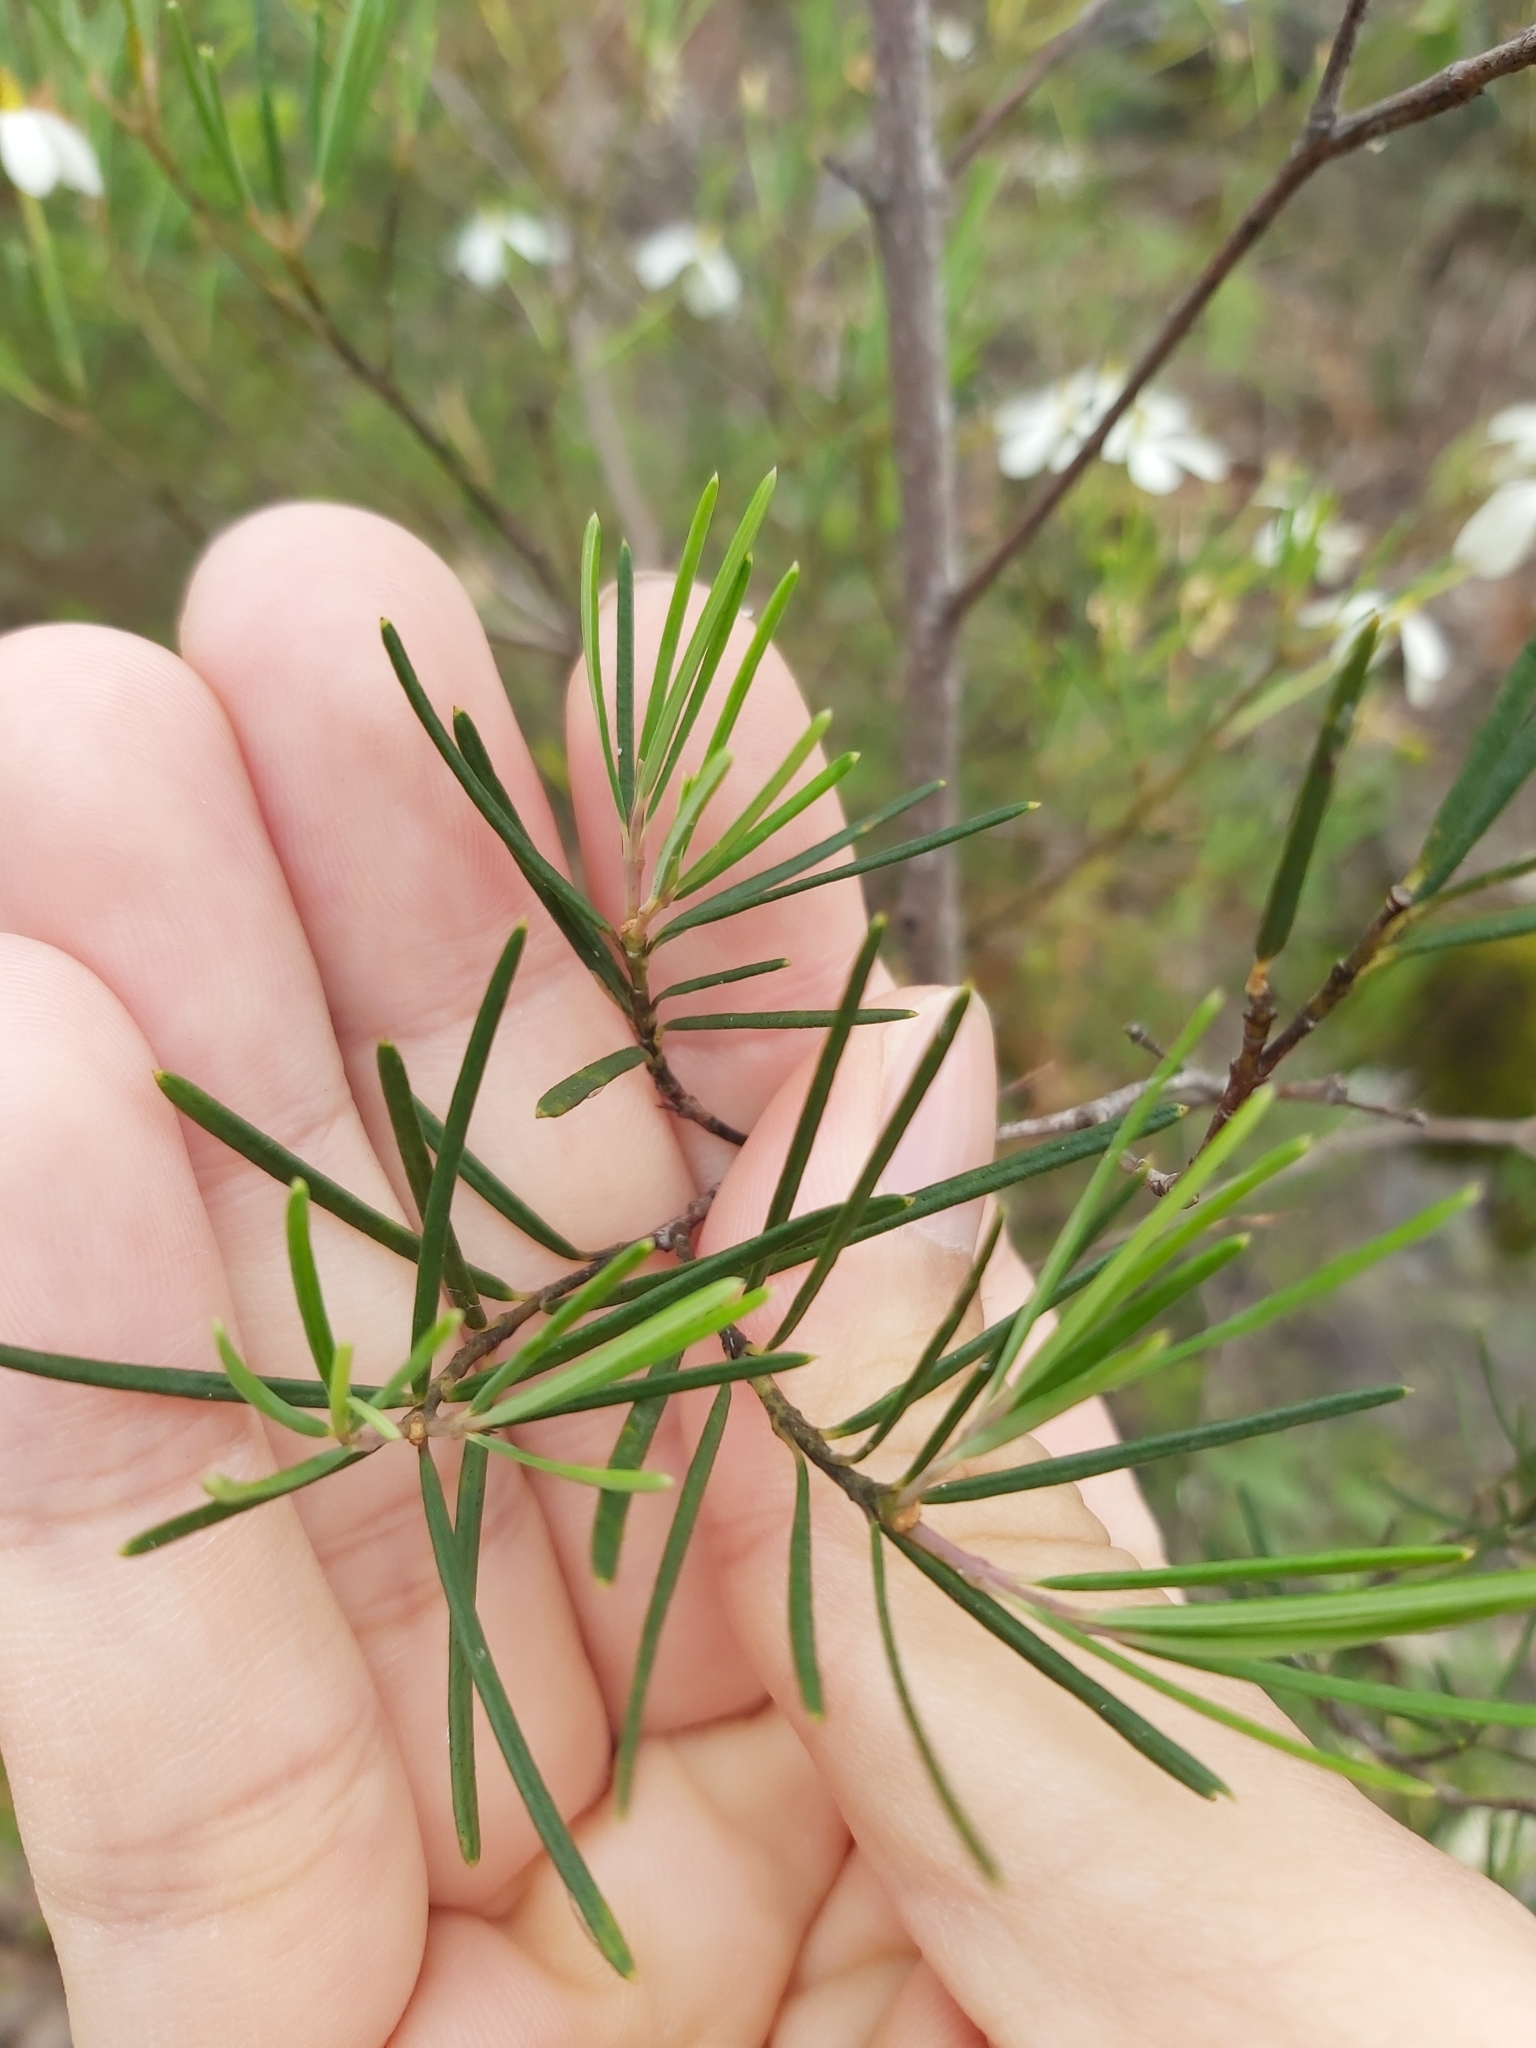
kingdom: Plantae
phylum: Tracheophyta
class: Magnoliopsida
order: Malpighiales
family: Euphorbiaceae
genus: Ricinocarpos
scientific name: Ricinocarpos pinifolius
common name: Weddingbush
